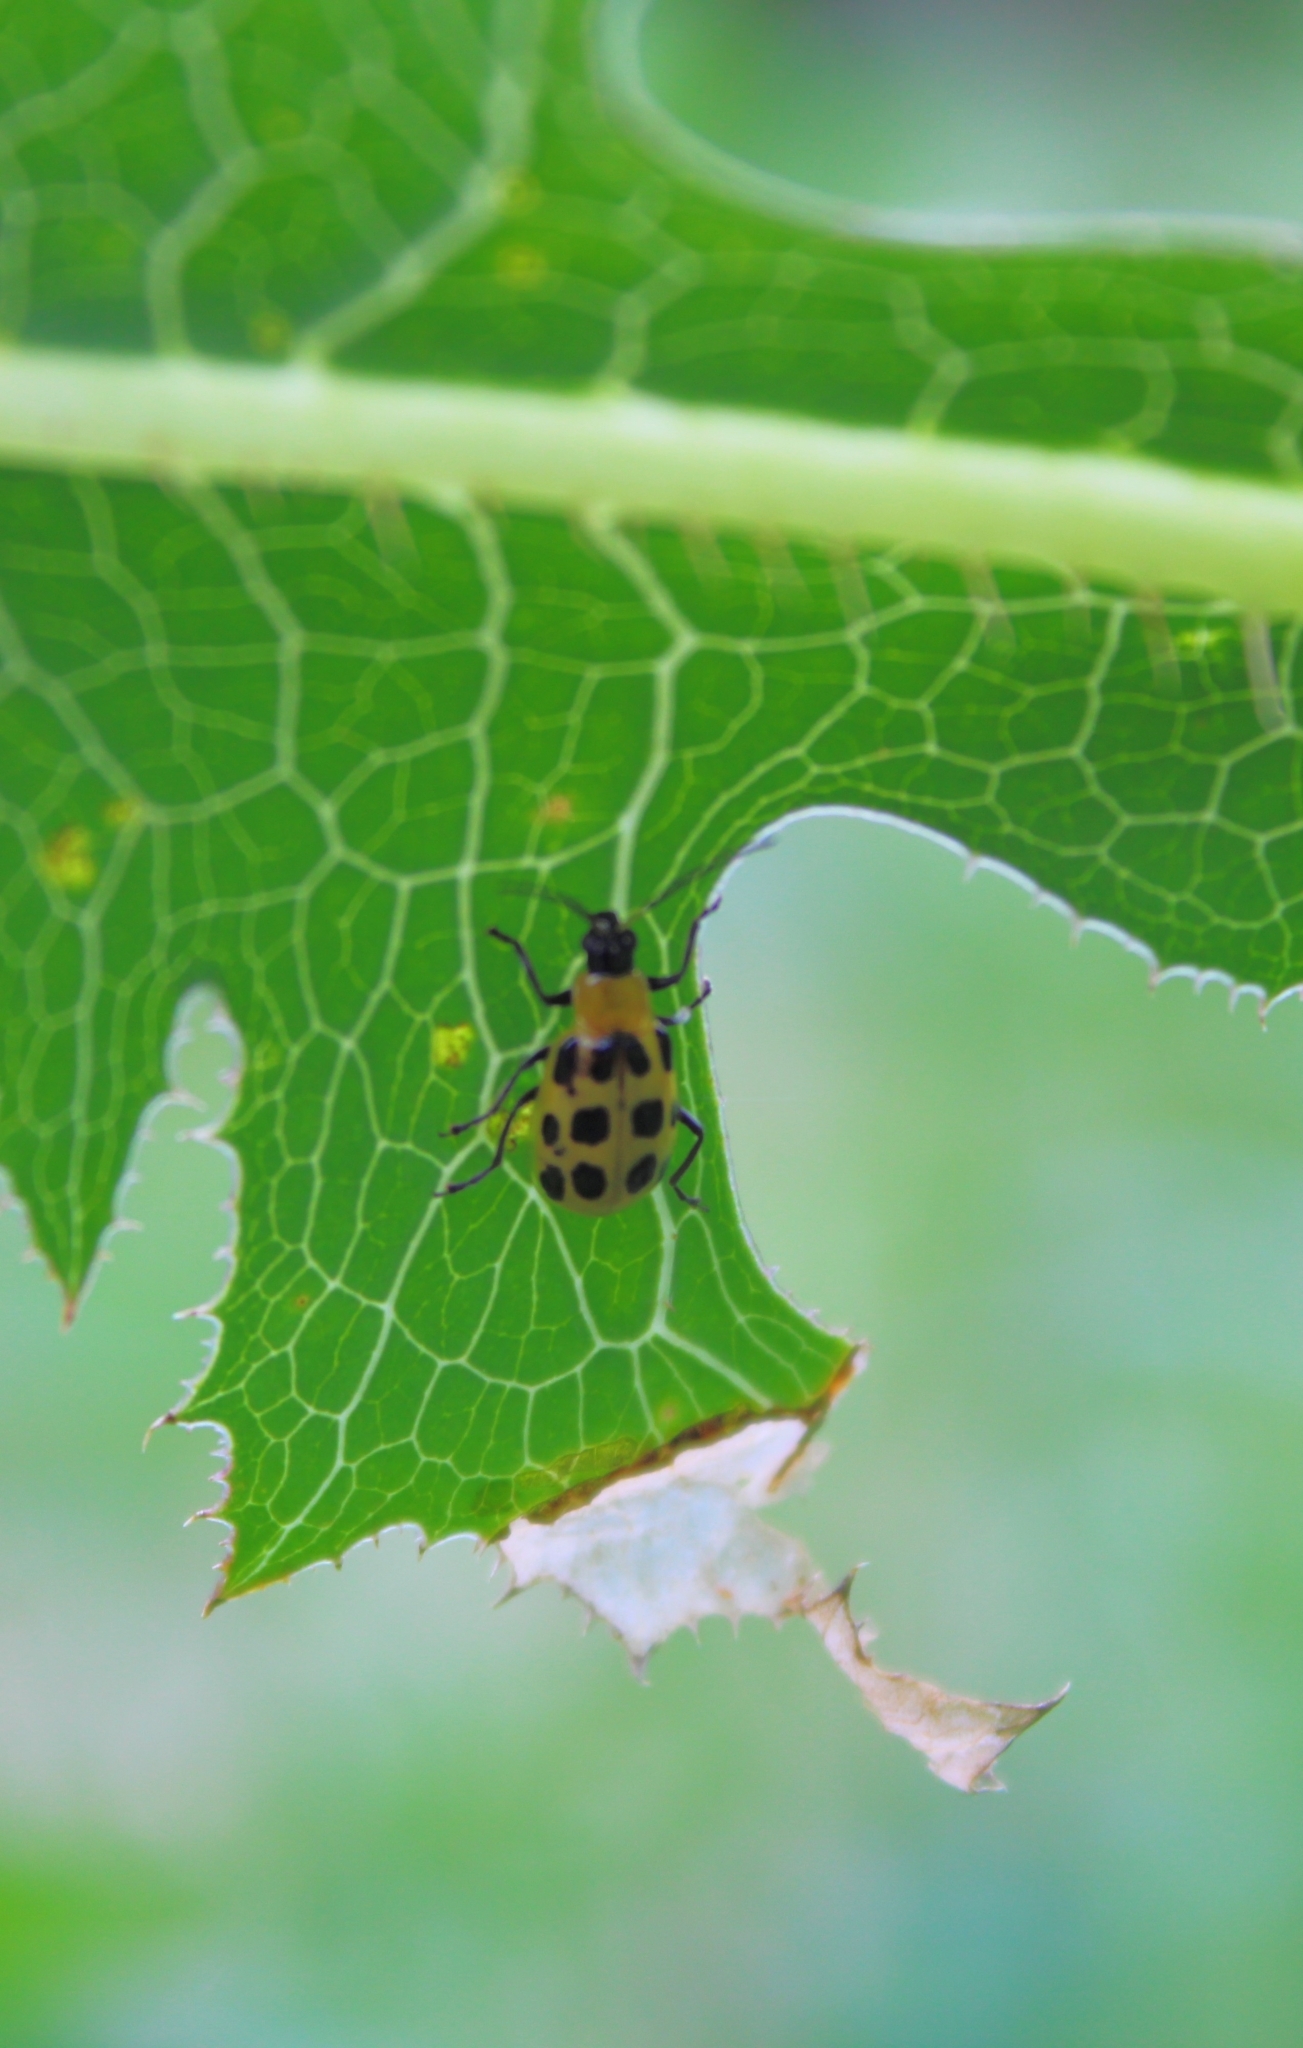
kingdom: Animalia
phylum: Arthropoda
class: Insecta
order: Coleoptera
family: Chrysomelidae
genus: Diabrotica
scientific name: Diabrotica undecimpunctata
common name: Spotted cucumber beetle
